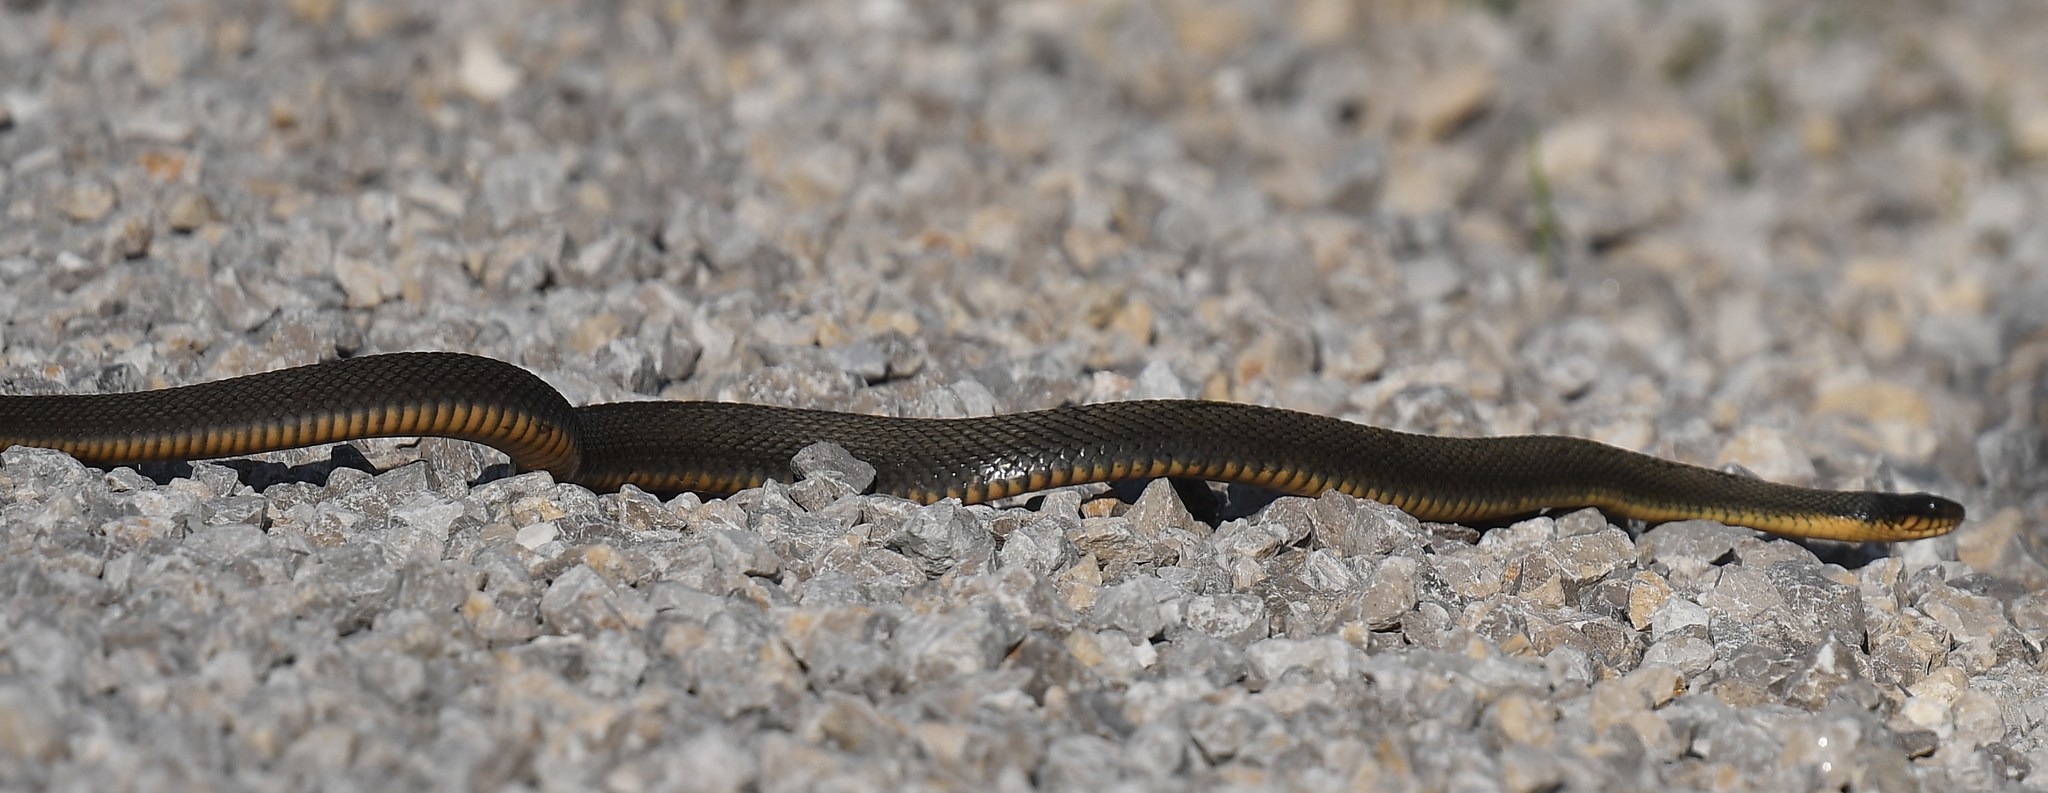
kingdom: Animalia
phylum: Chordata
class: Squamata
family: Colubridae
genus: Nerodia
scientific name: Nerodia erythrogaster
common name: Plainbelly water snake
